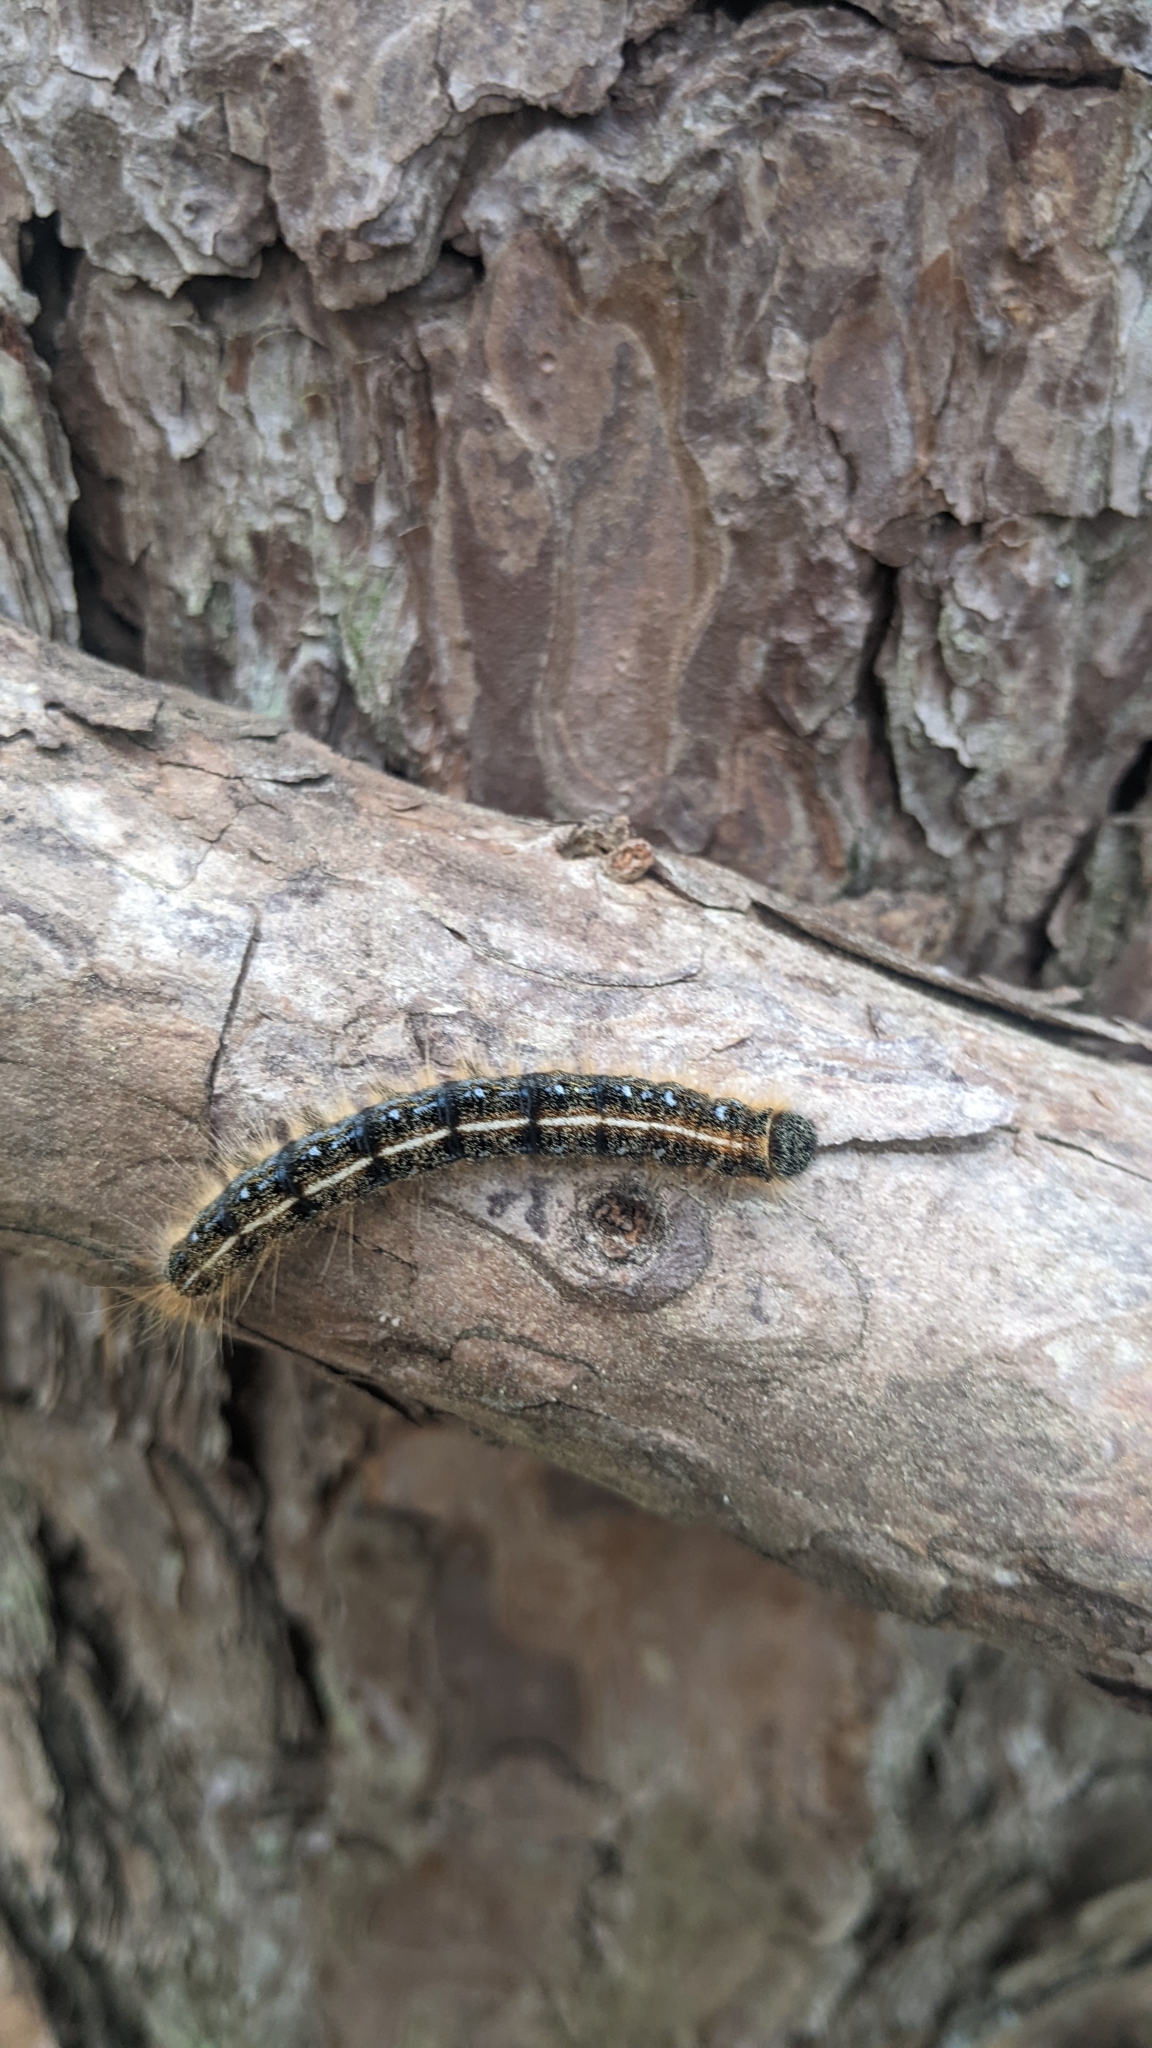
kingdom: Animalia
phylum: Arthropoda
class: Insecta
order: Lepidoptera
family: Lasiocampidae
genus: Malacosoma
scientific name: Malacosoma americana
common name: Eastern tent caterpillar moth
